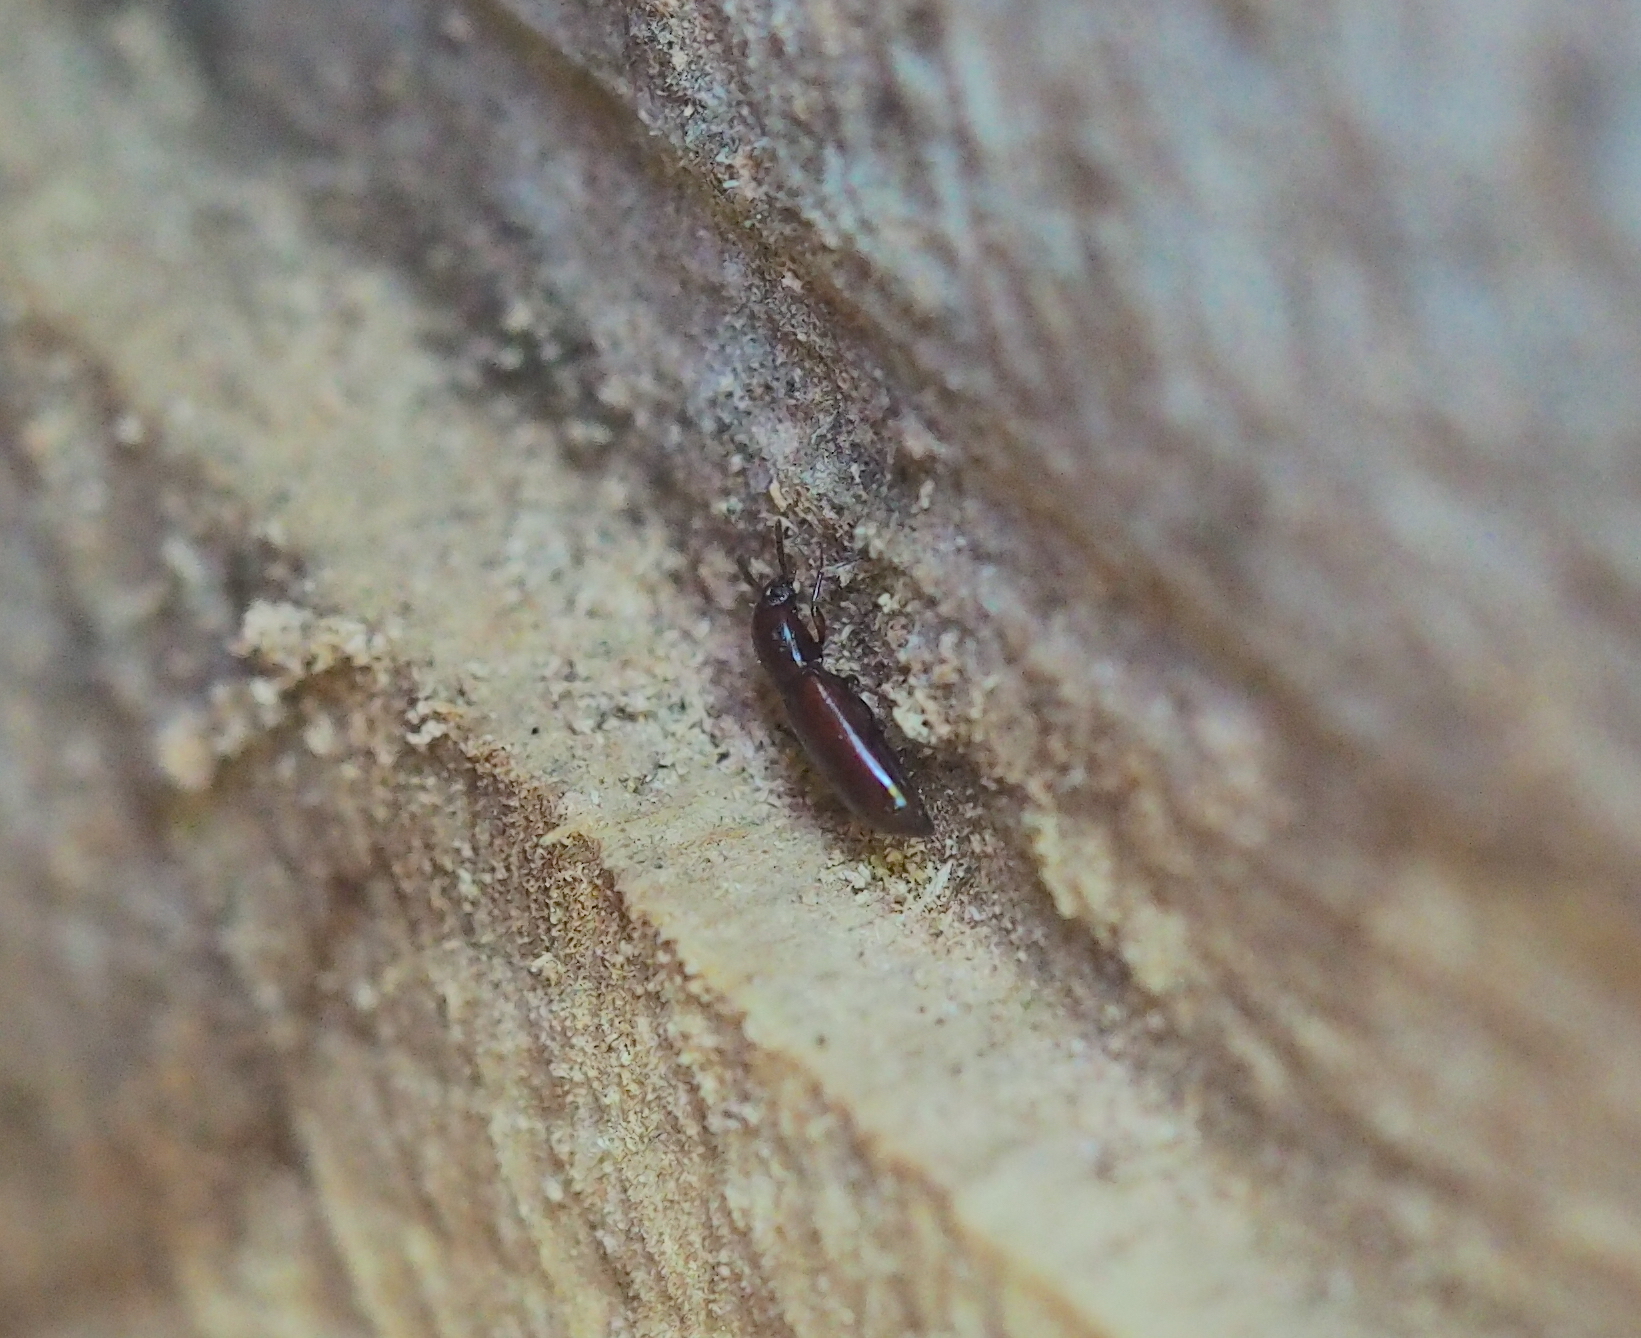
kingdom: Animalia
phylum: Arthropoda
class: Insecta
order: Coleoptera
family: Tenebrionidae
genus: Corticeus
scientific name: Corticeus unicolor
